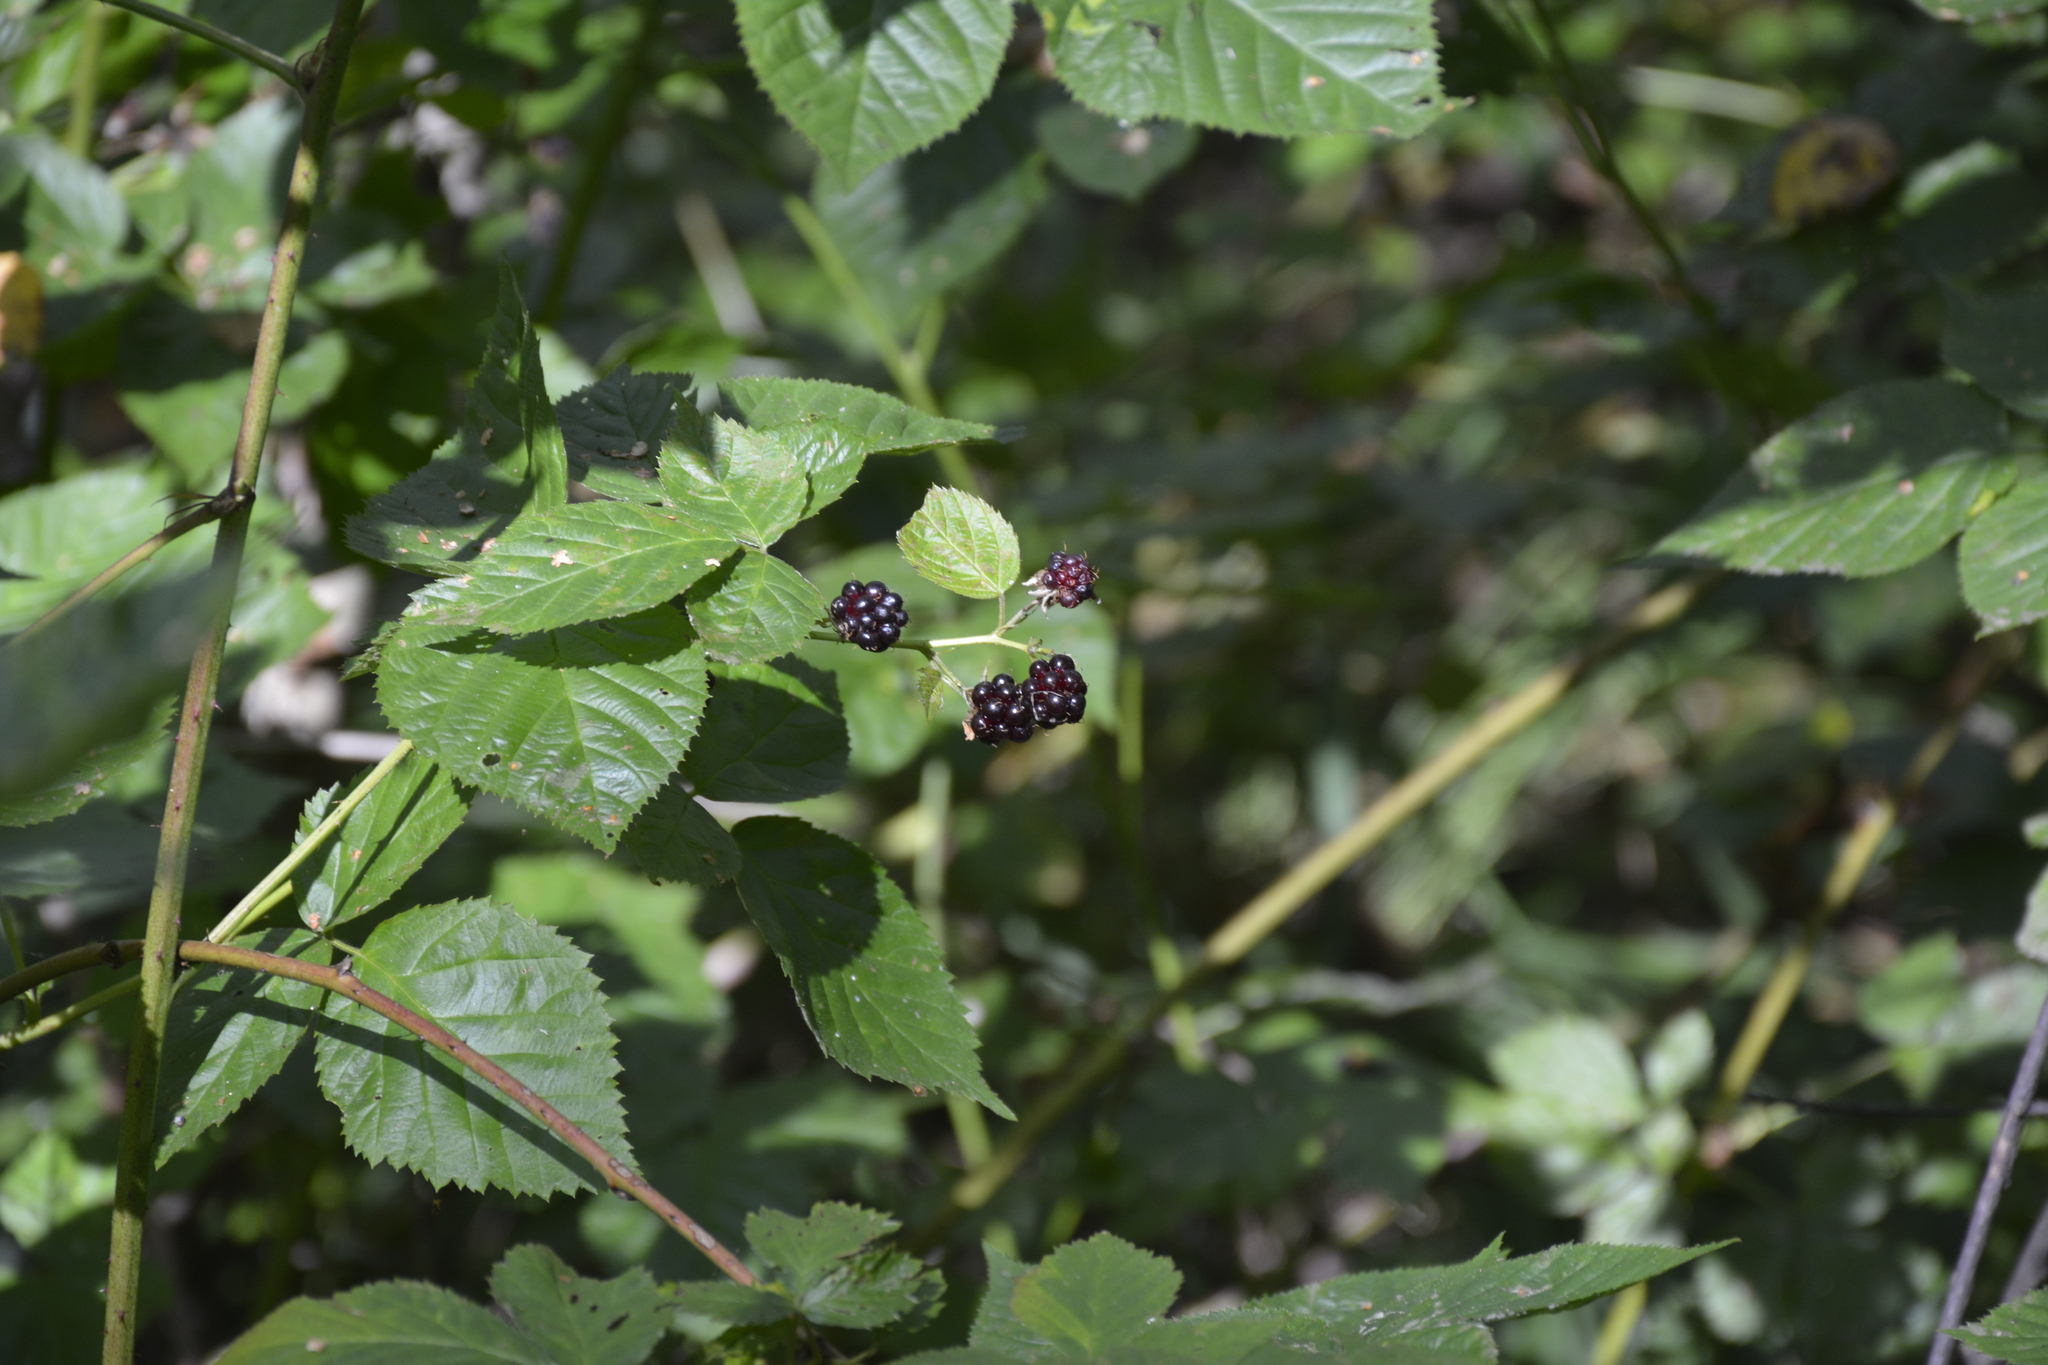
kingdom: Plantae
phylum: Tracheophyta
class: Magnoliopsida
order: Rosales
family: Rosaceae
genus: Rubus
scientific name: Rubus polonicus
